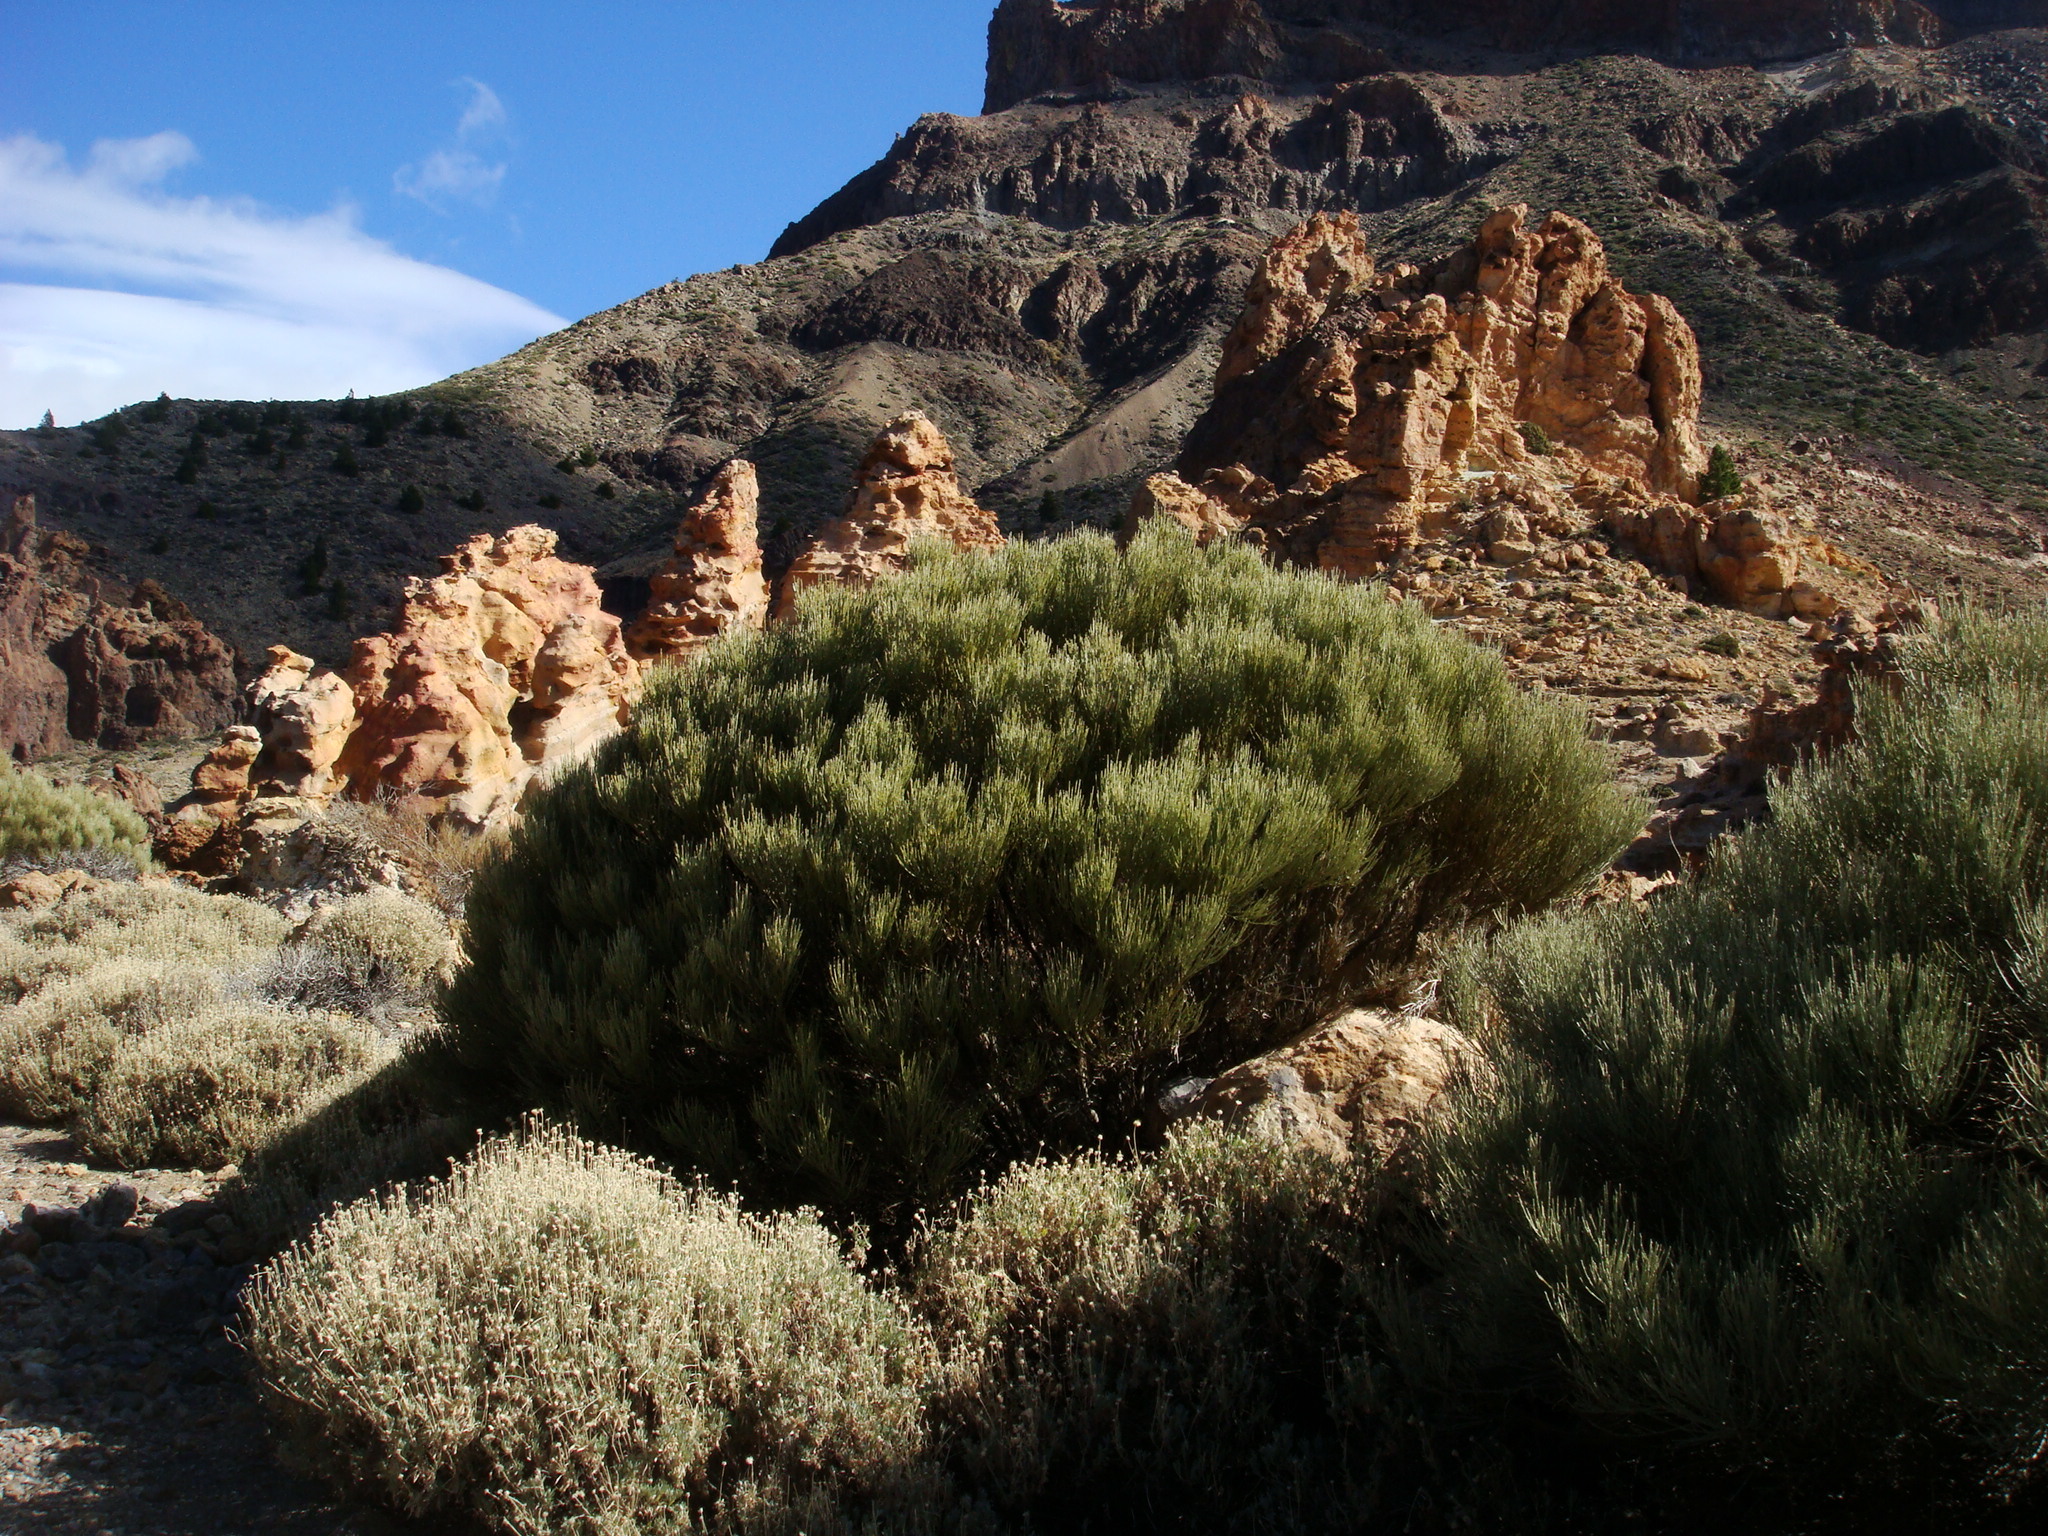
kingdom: Plantae
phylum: Tracheophyta
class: Magnoliopsida
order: Fabales
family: Fabaceae
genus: Cytisus
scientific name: Cytisus supranubius
